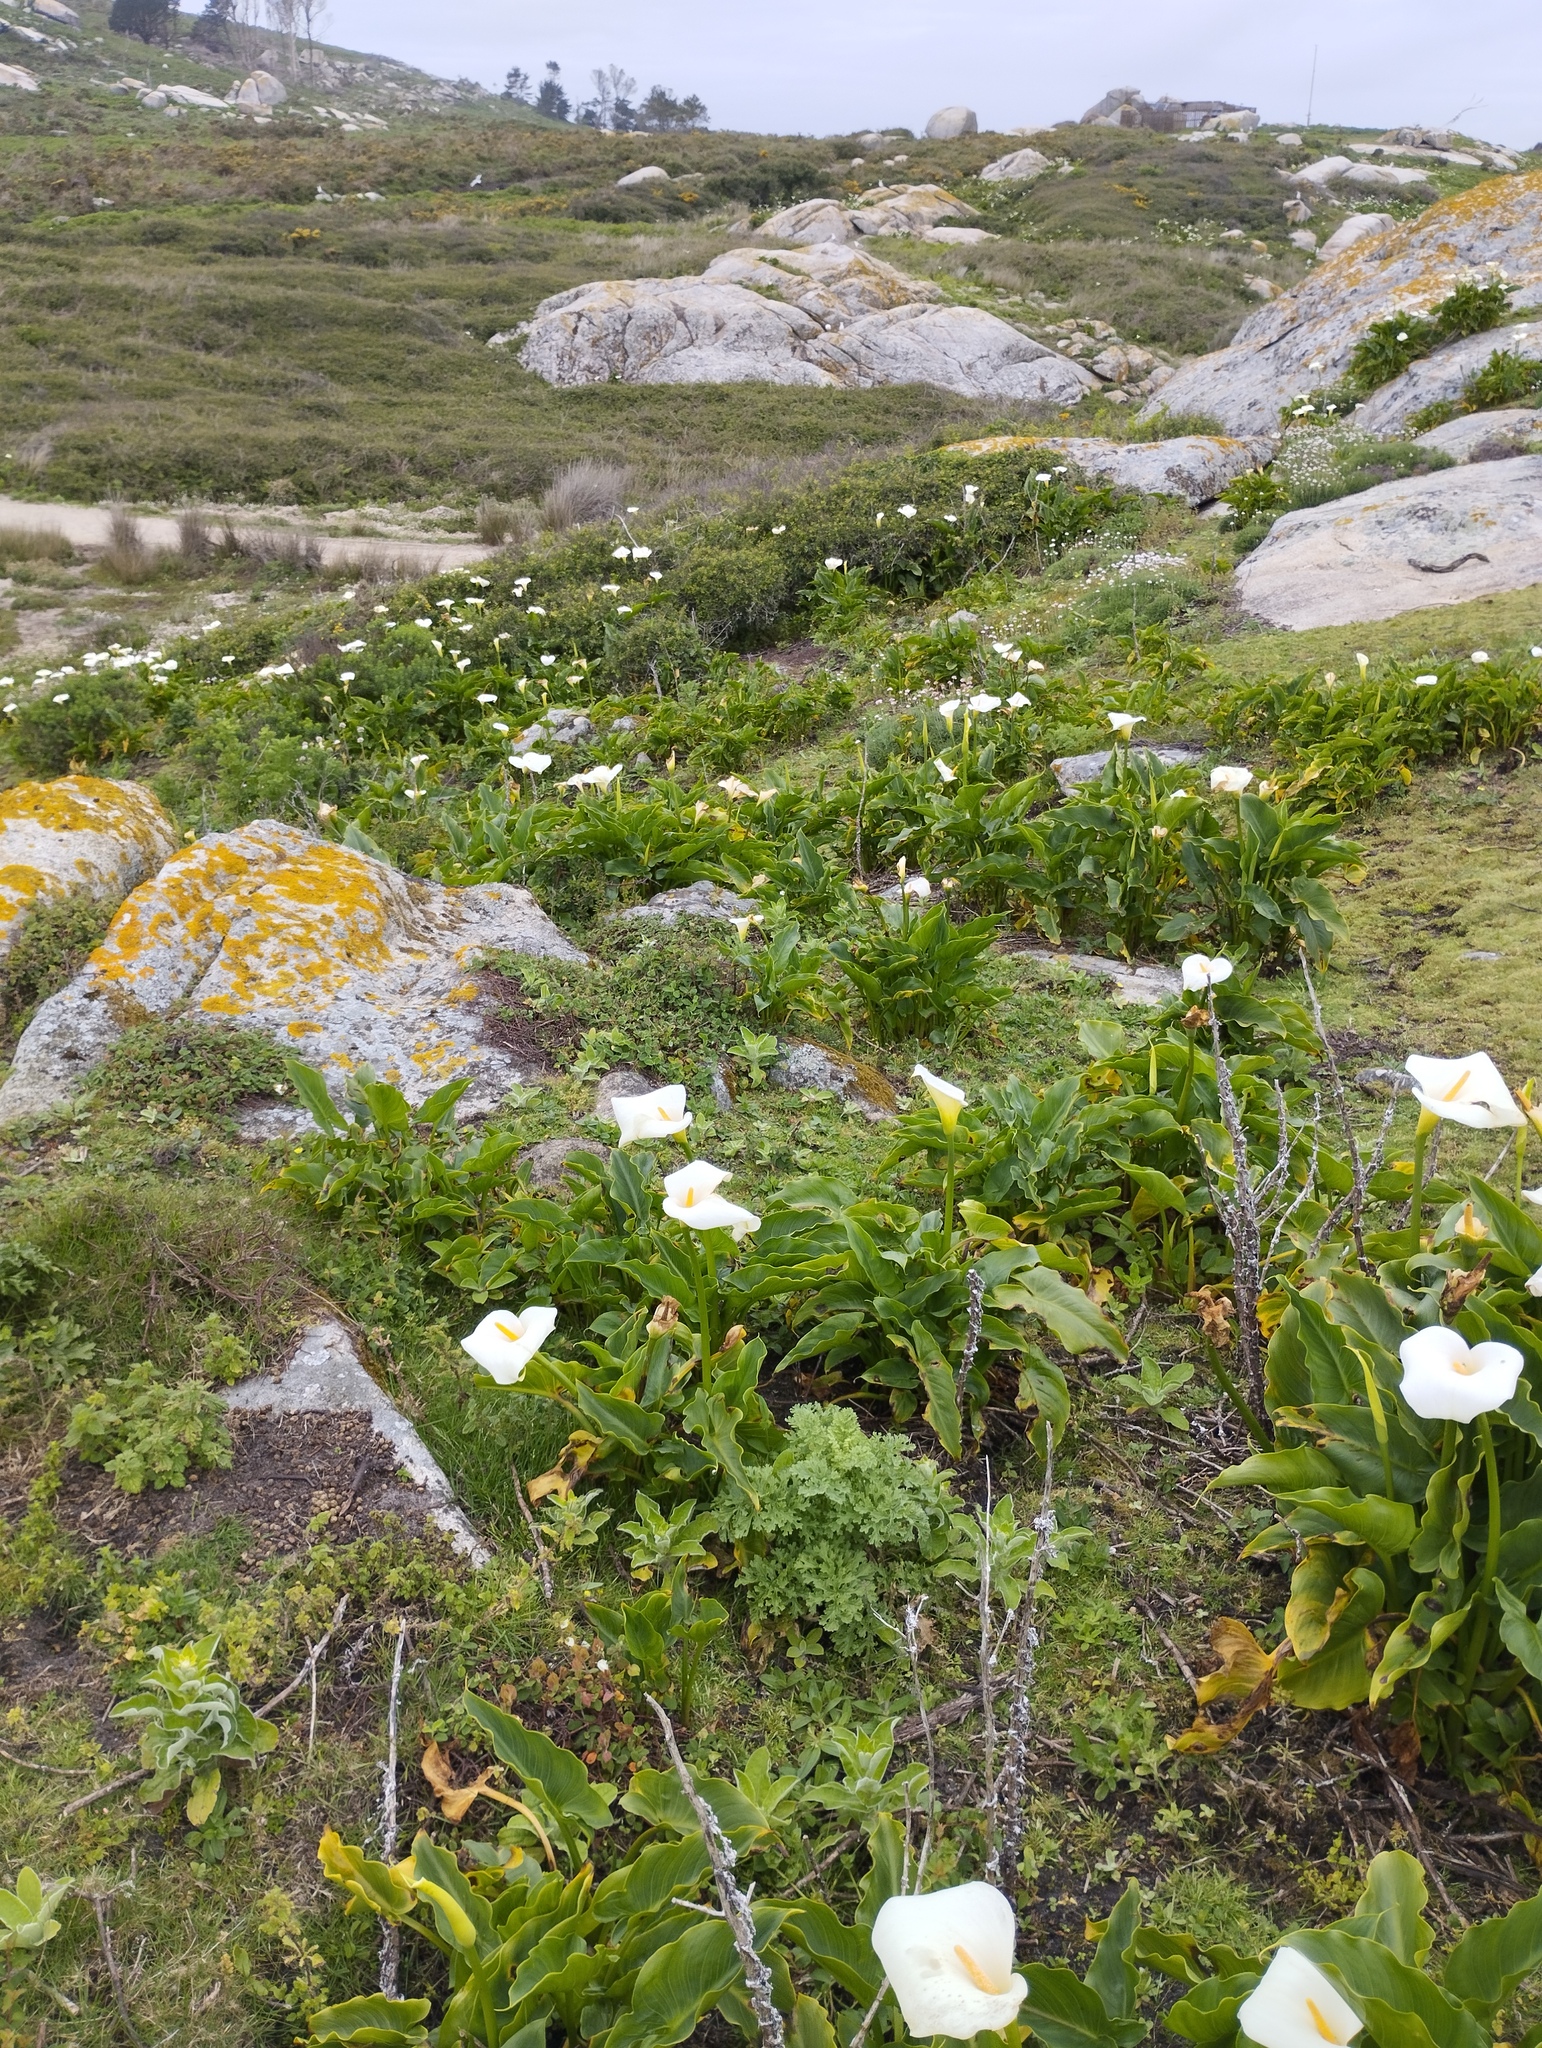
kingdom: Plantae
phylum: Tracheophyta
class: Liliopsida
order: Alismatales
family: Araceae
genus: Zantedeschia
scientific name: Zantedeschia aethiopica
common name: Altar-lily
